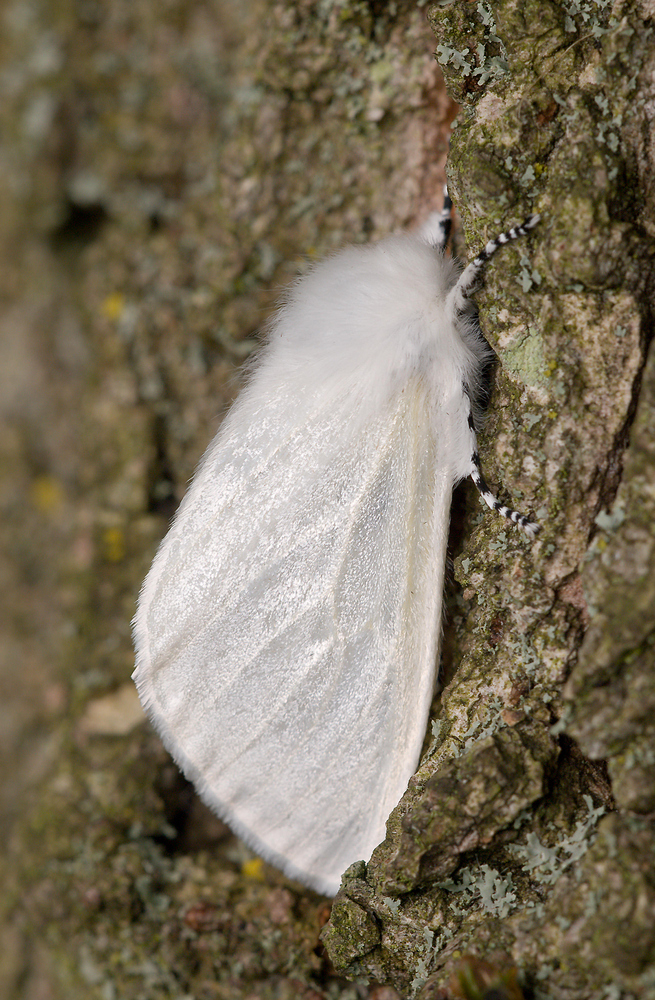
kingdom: Animalia
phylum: Arthropoda
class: Insecta
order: Lepidoptera
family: Erebidae
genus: Leucoma
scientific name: Leucoma salicis
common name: White satin moth
